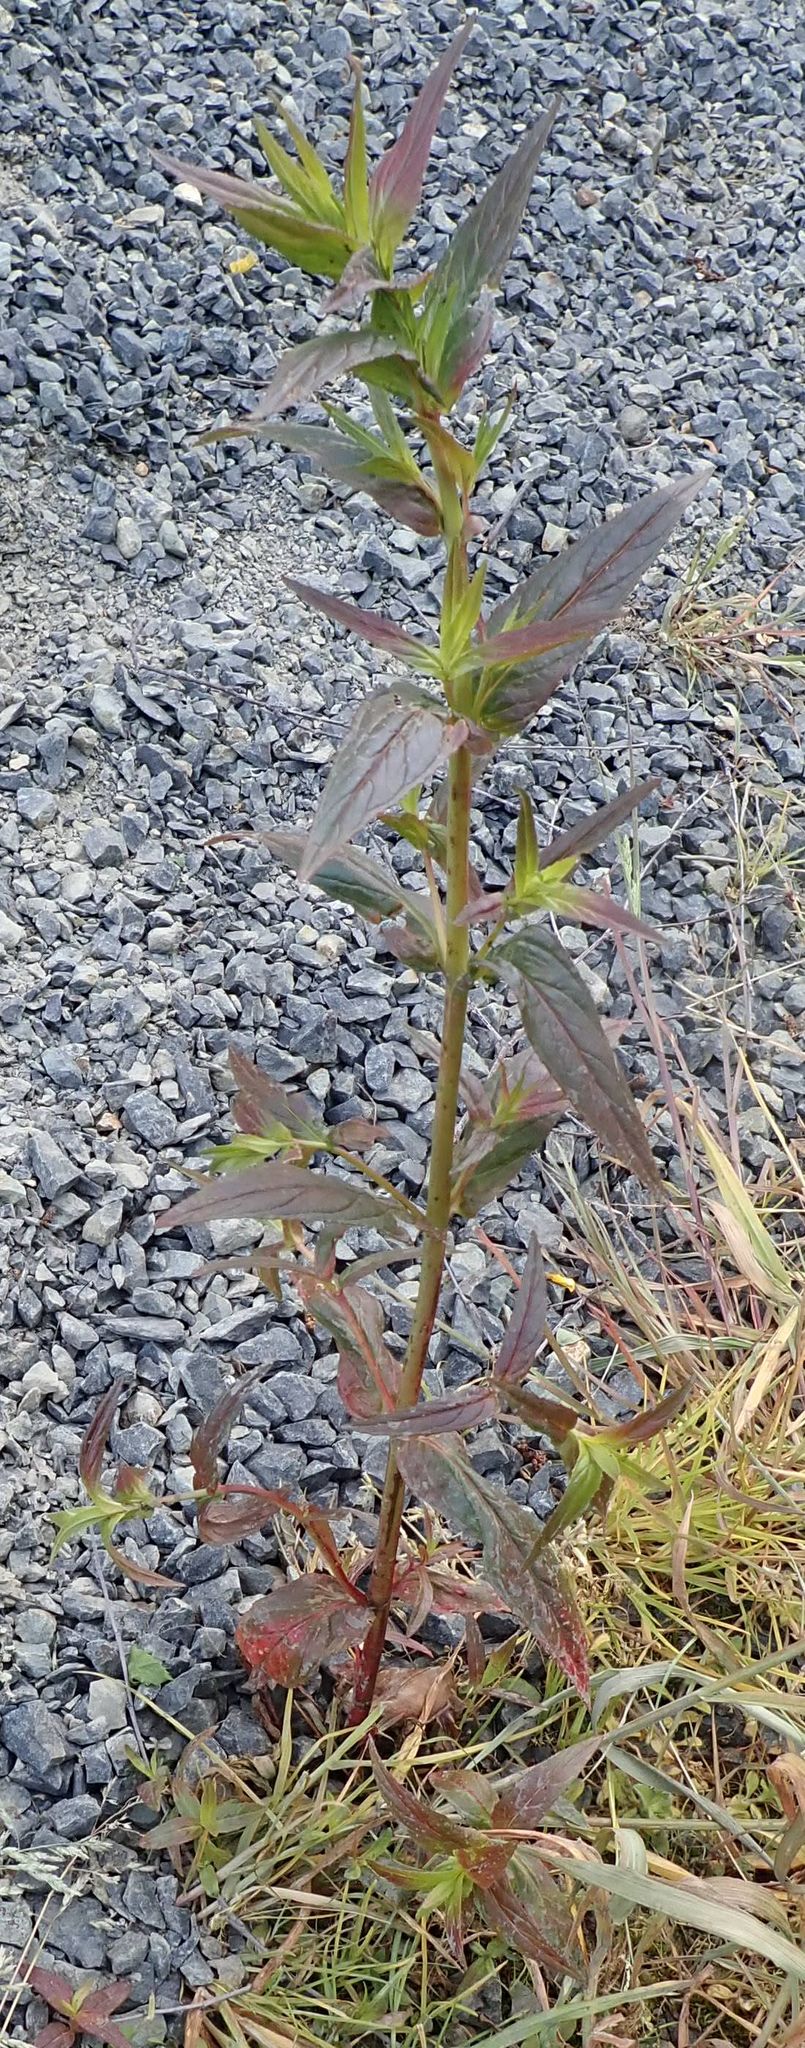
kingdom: Plantae
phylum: Tracheophyta
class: Magnoliopsida
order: Myrtales
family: Onagraceae
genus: Epilobium
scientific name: Epilobium ciliatum
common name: American willowherb
